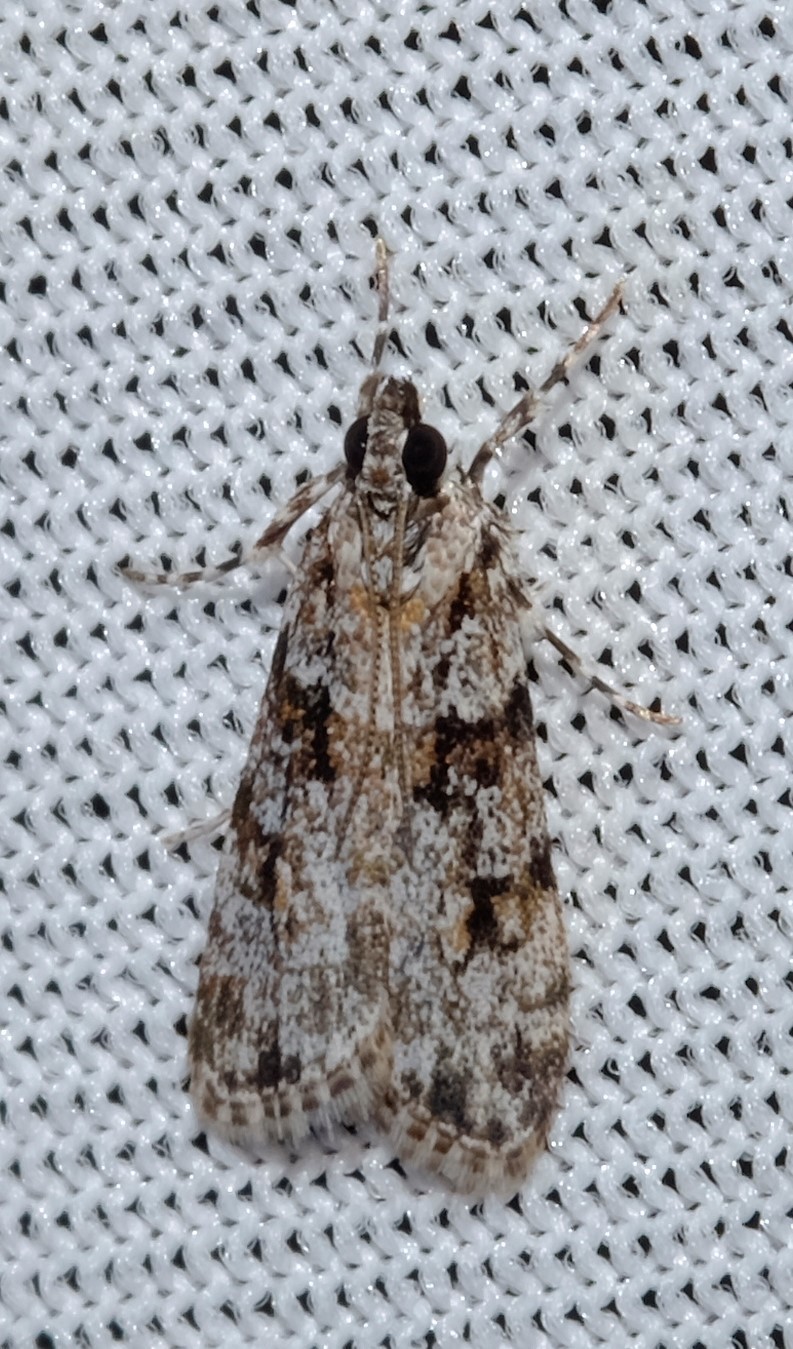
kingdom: Animalia
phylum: Arthropoda
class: Insecta
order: Lepidoptera
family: Crambidae
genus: Scoparia
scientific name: Scoparia chiasta
